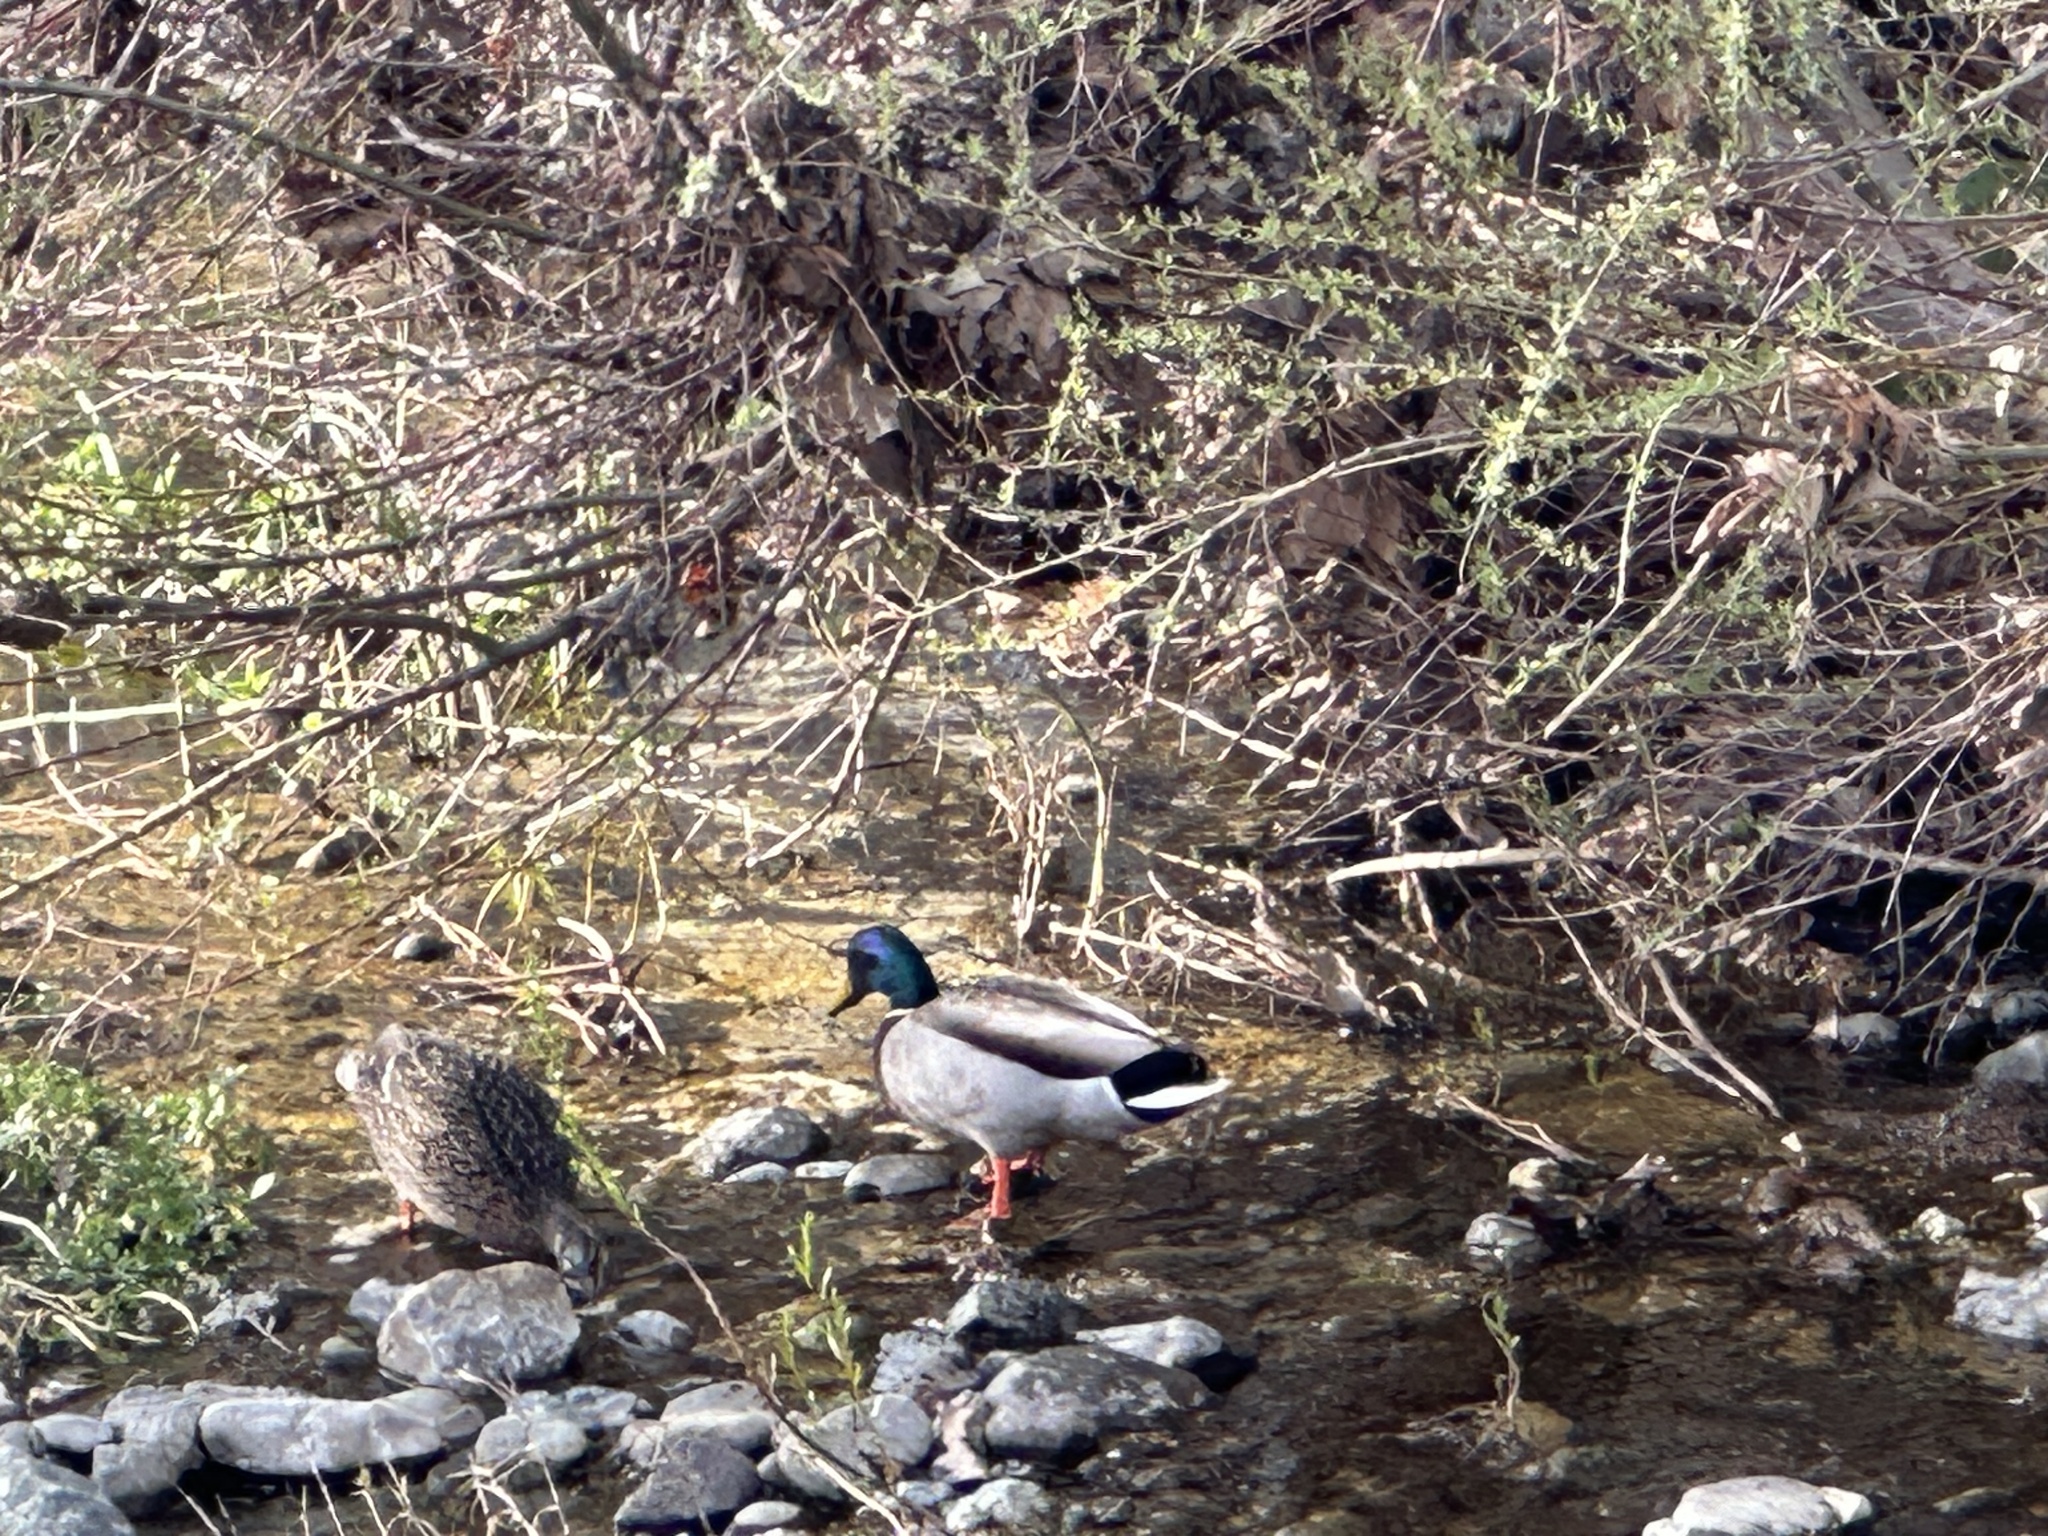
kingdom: Animalia
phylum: Chordata
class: Aves
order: Anseriformes
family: Anatidae
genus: Anas
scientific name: Anas platyrhynchos
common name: Mallard
